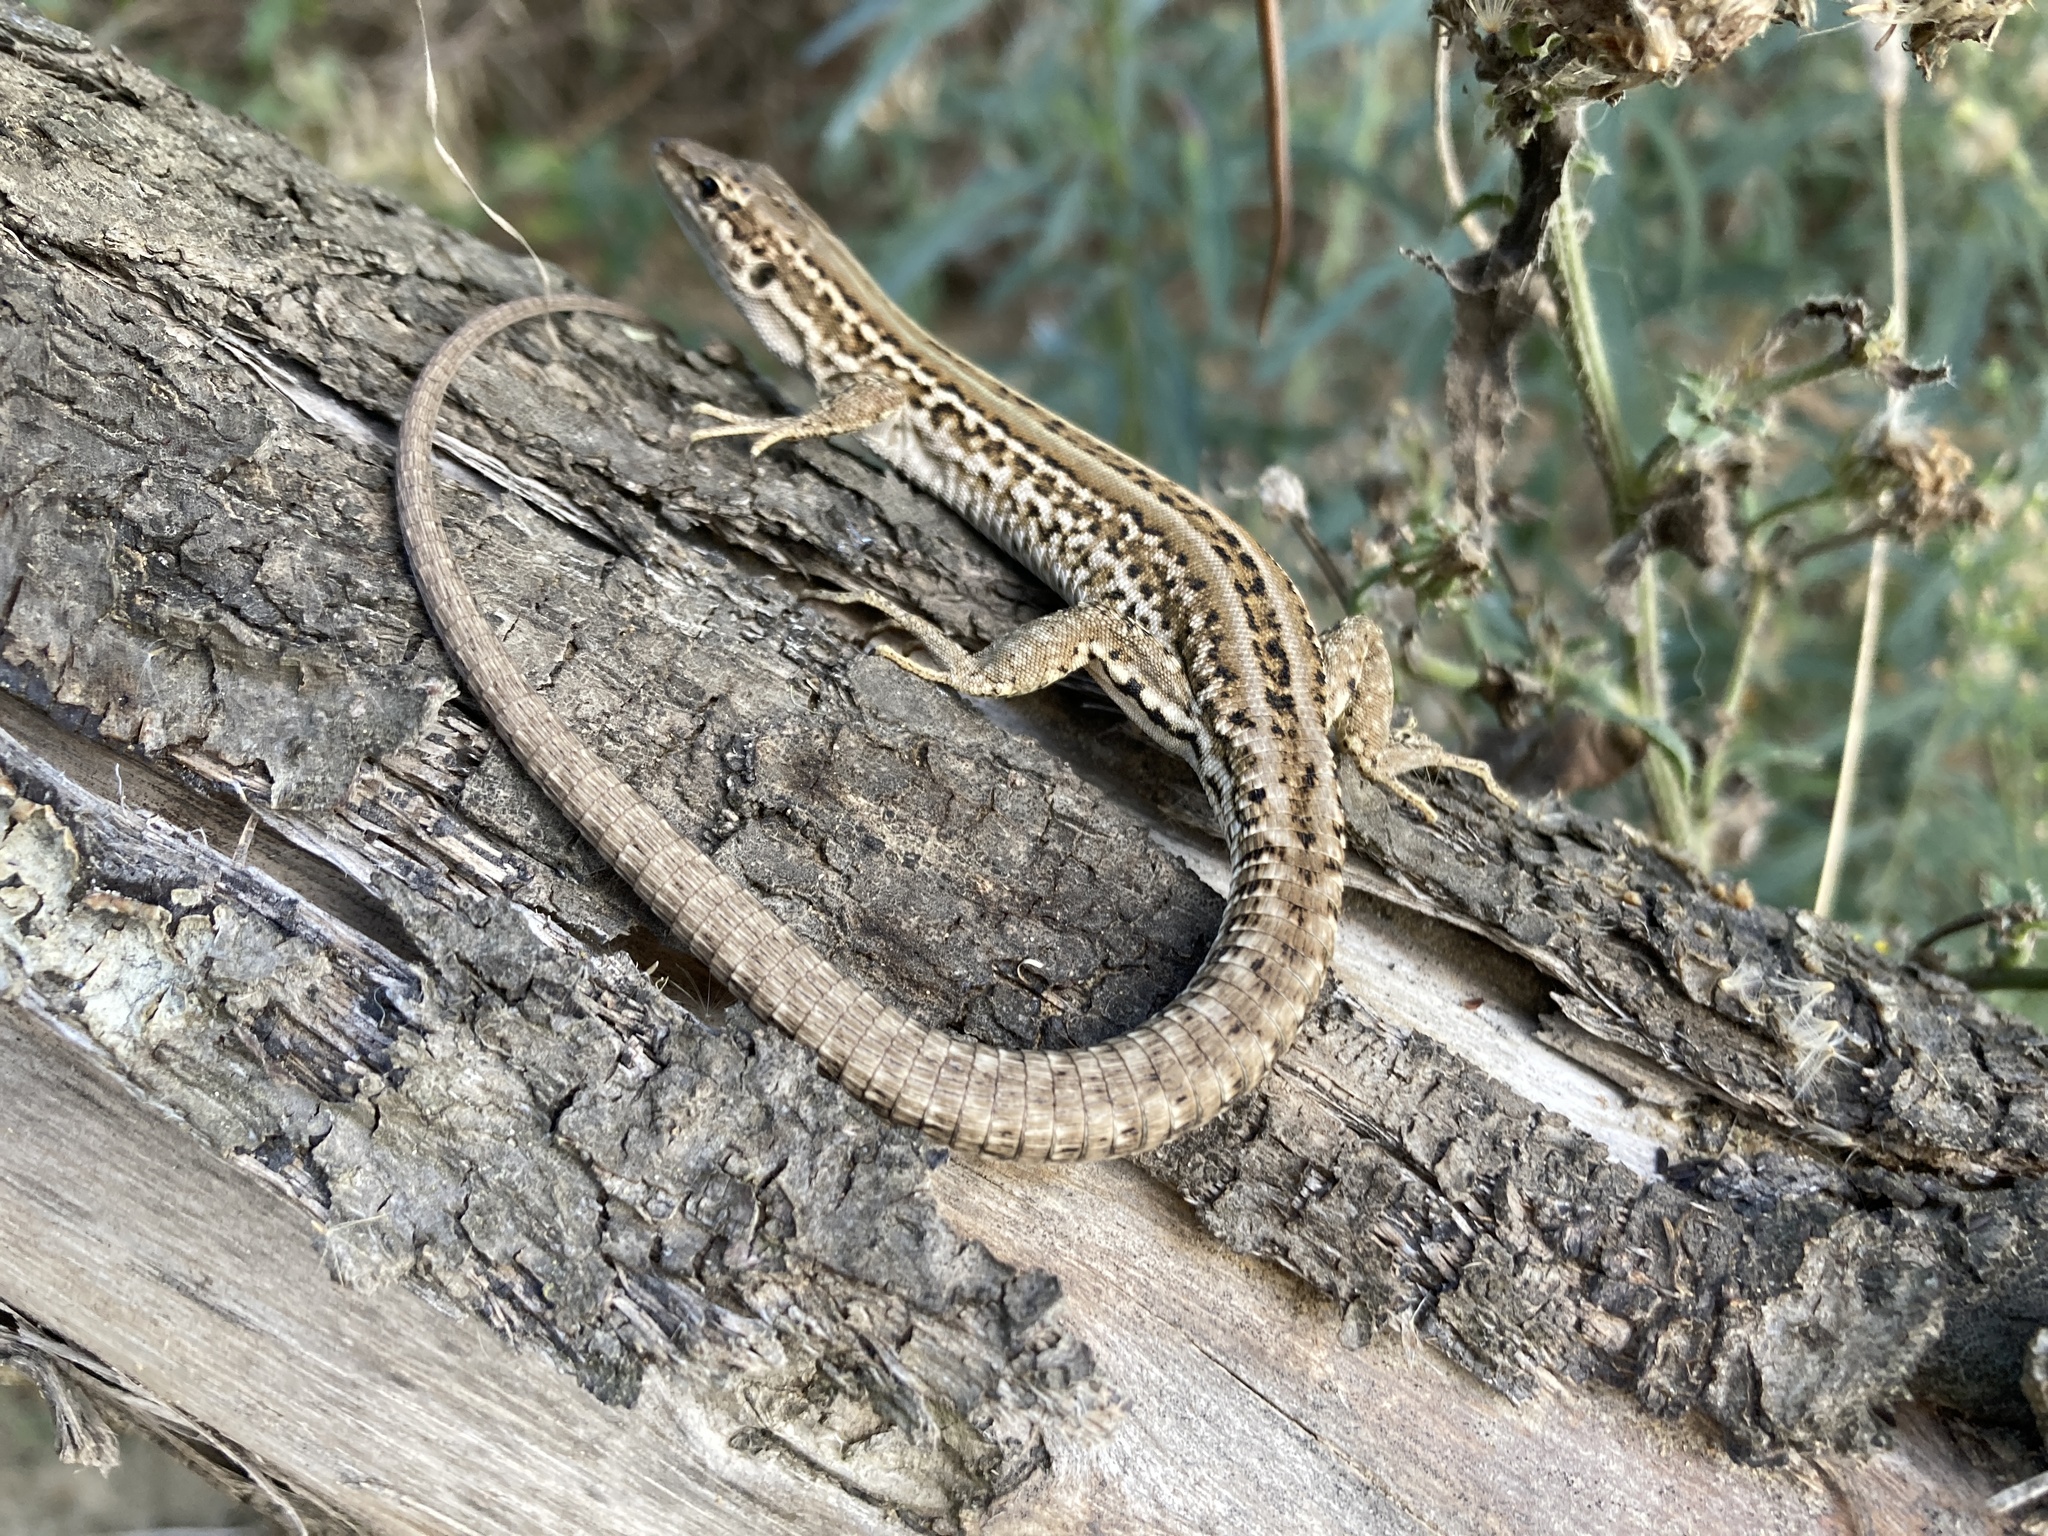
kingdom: Animalia
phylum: Chordata
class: Squamata
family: Lacertidae
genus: Podarcis
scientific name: Podarcis siculus
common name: Italian wall lizard
